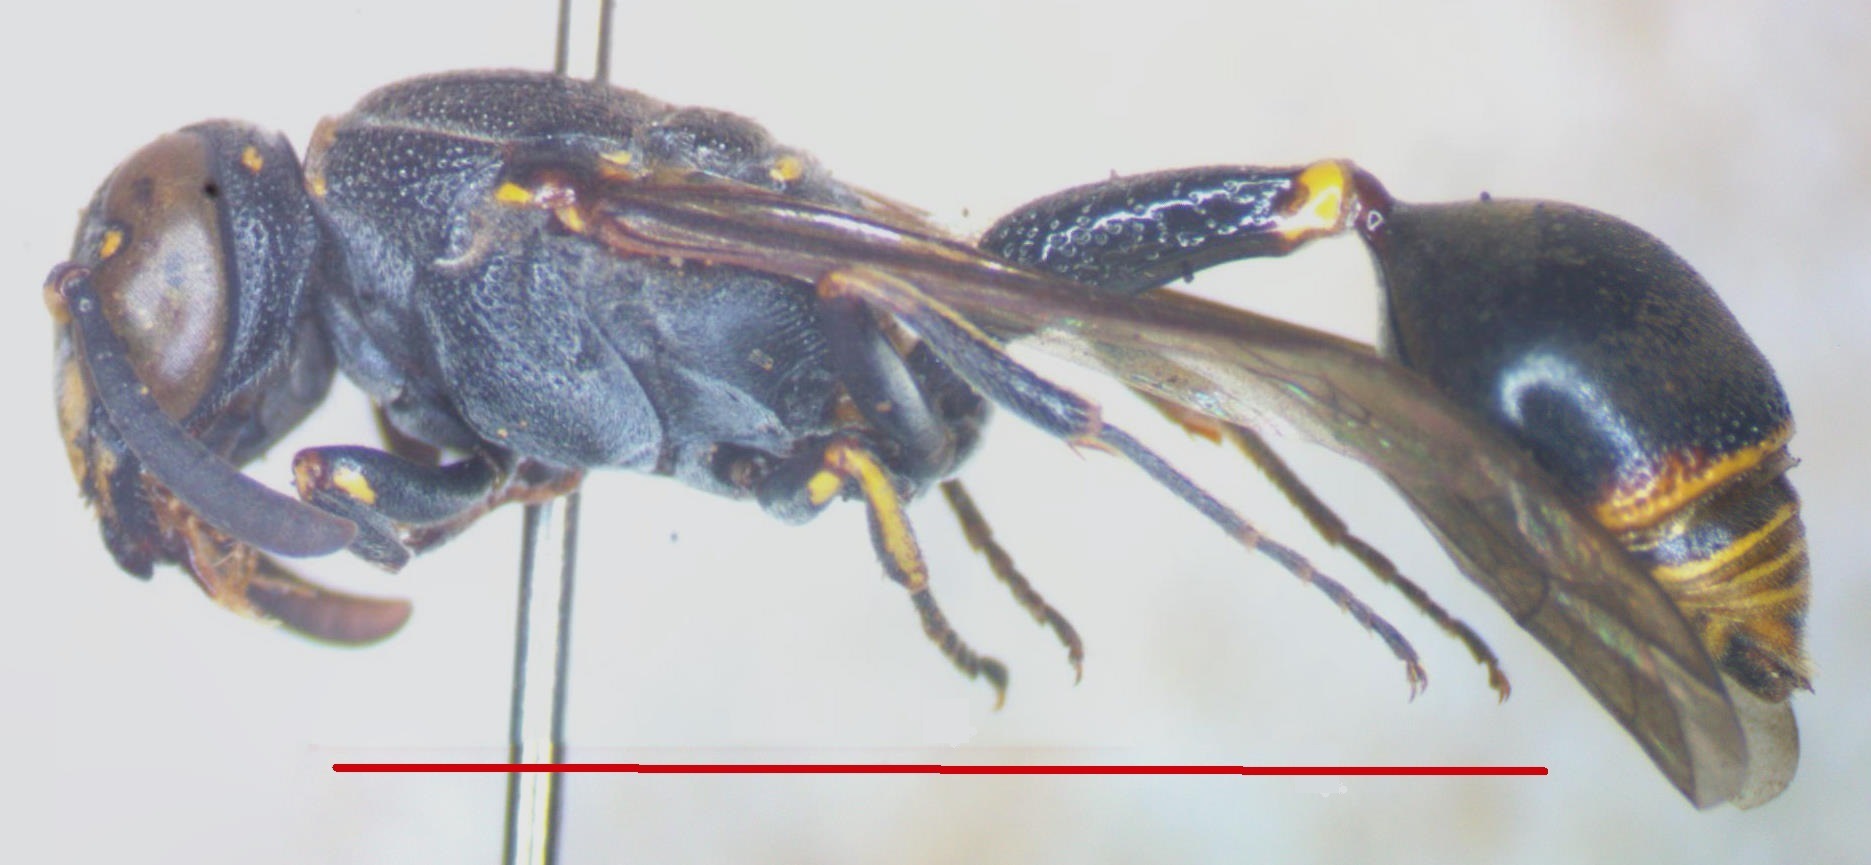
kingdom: Animalia
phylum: Arthropoda
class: Insecta
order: Hymenoptera
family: Eumenidae
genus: Zethus
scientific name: Zethus cylindricus
